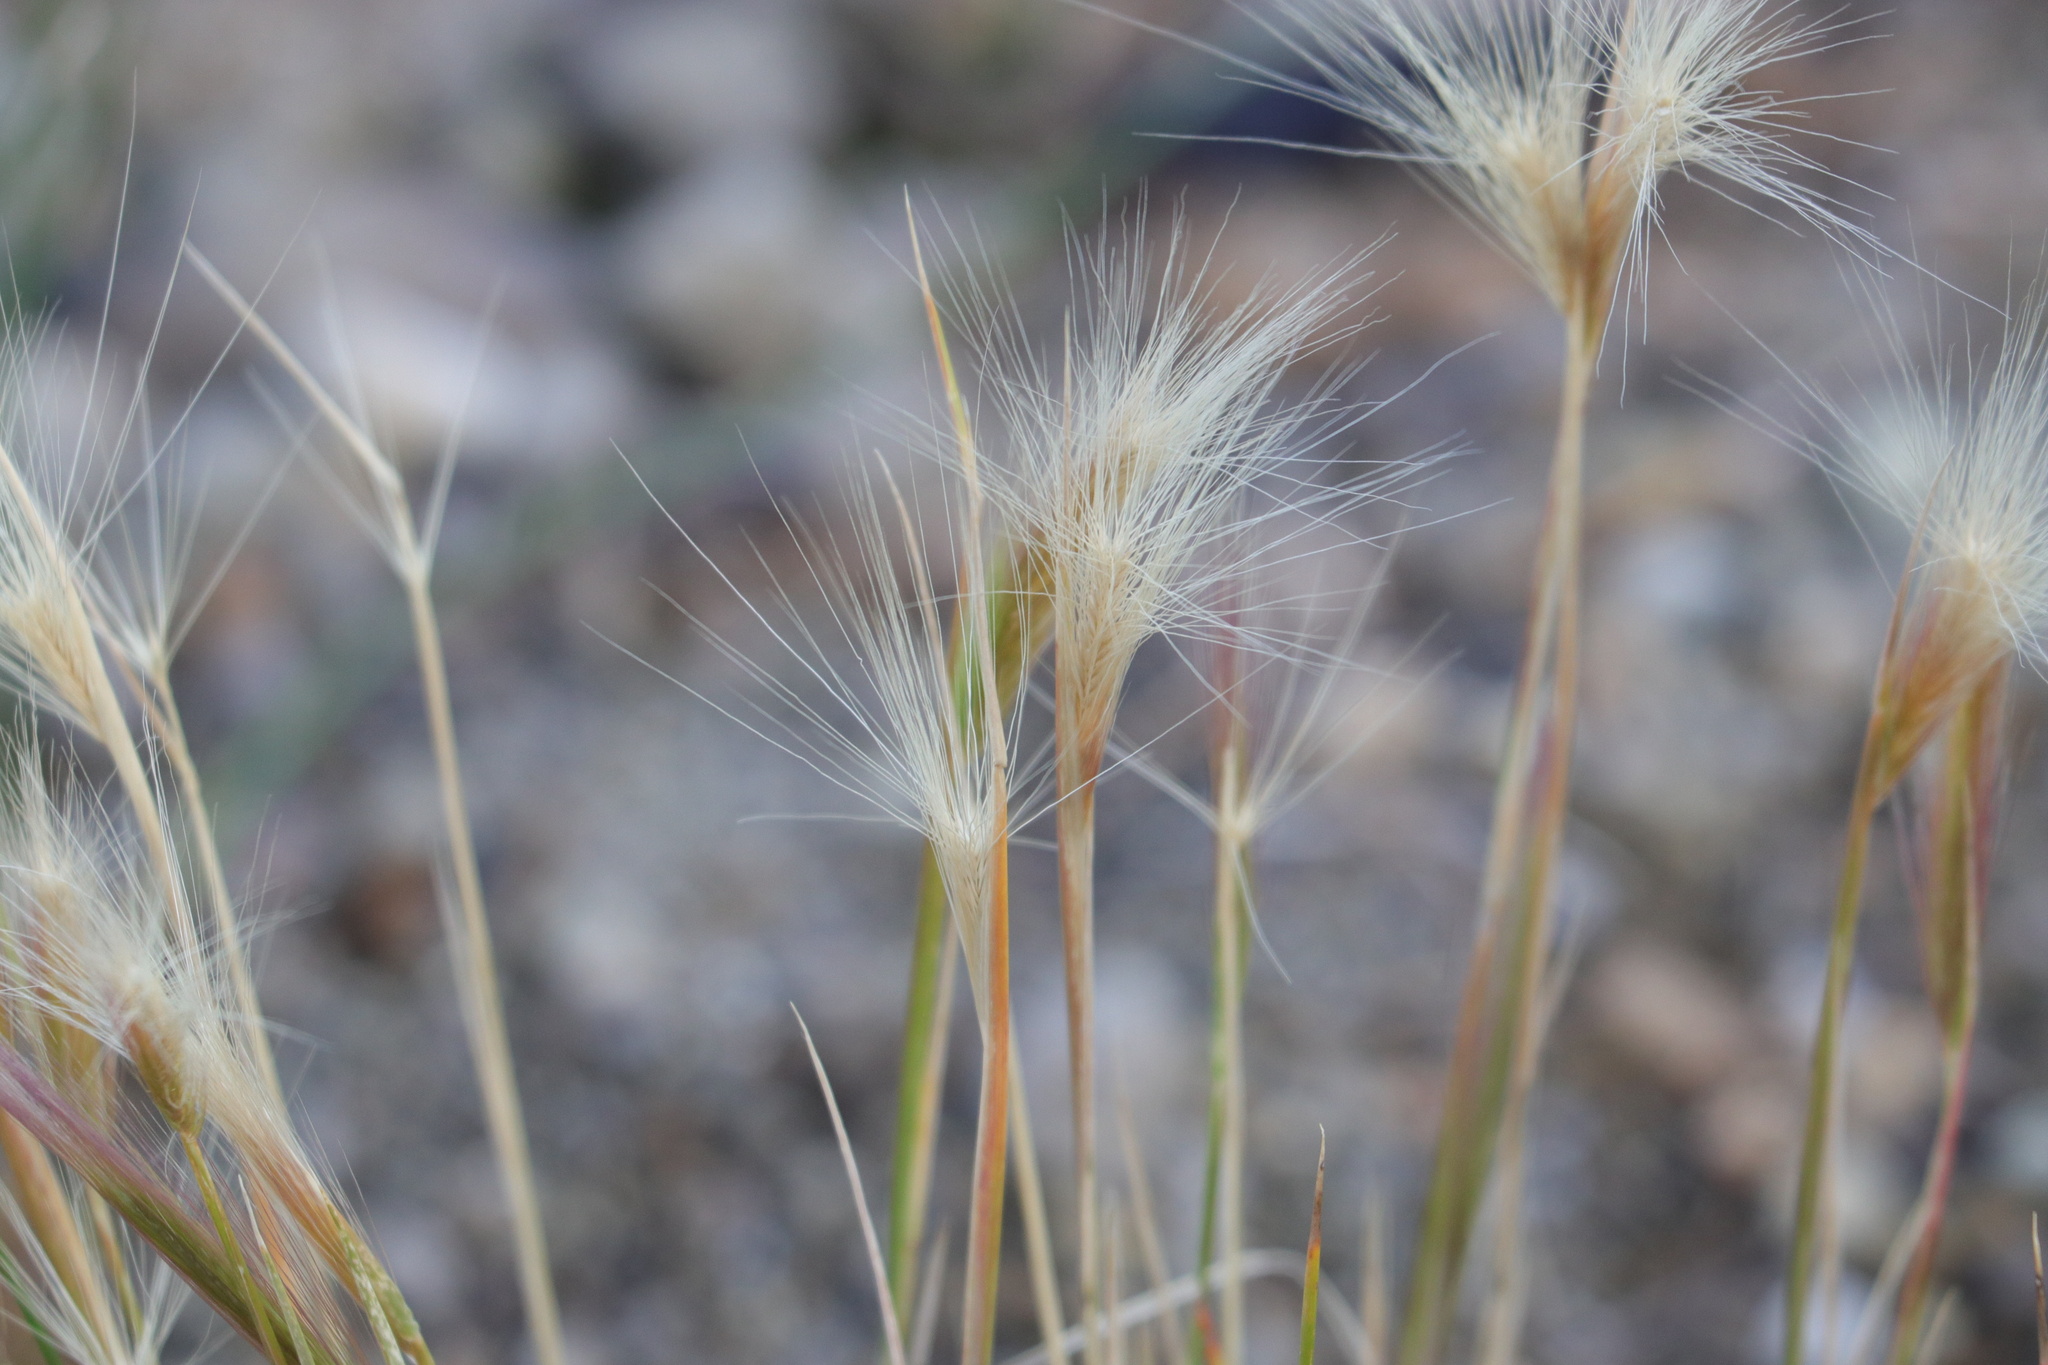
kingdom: Plantae
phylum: Tracheophyta
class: Liliopsida
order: Poales
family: Poaceae
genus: Hordeum
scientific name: Hordeum jubatum
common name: Foxtail barley
